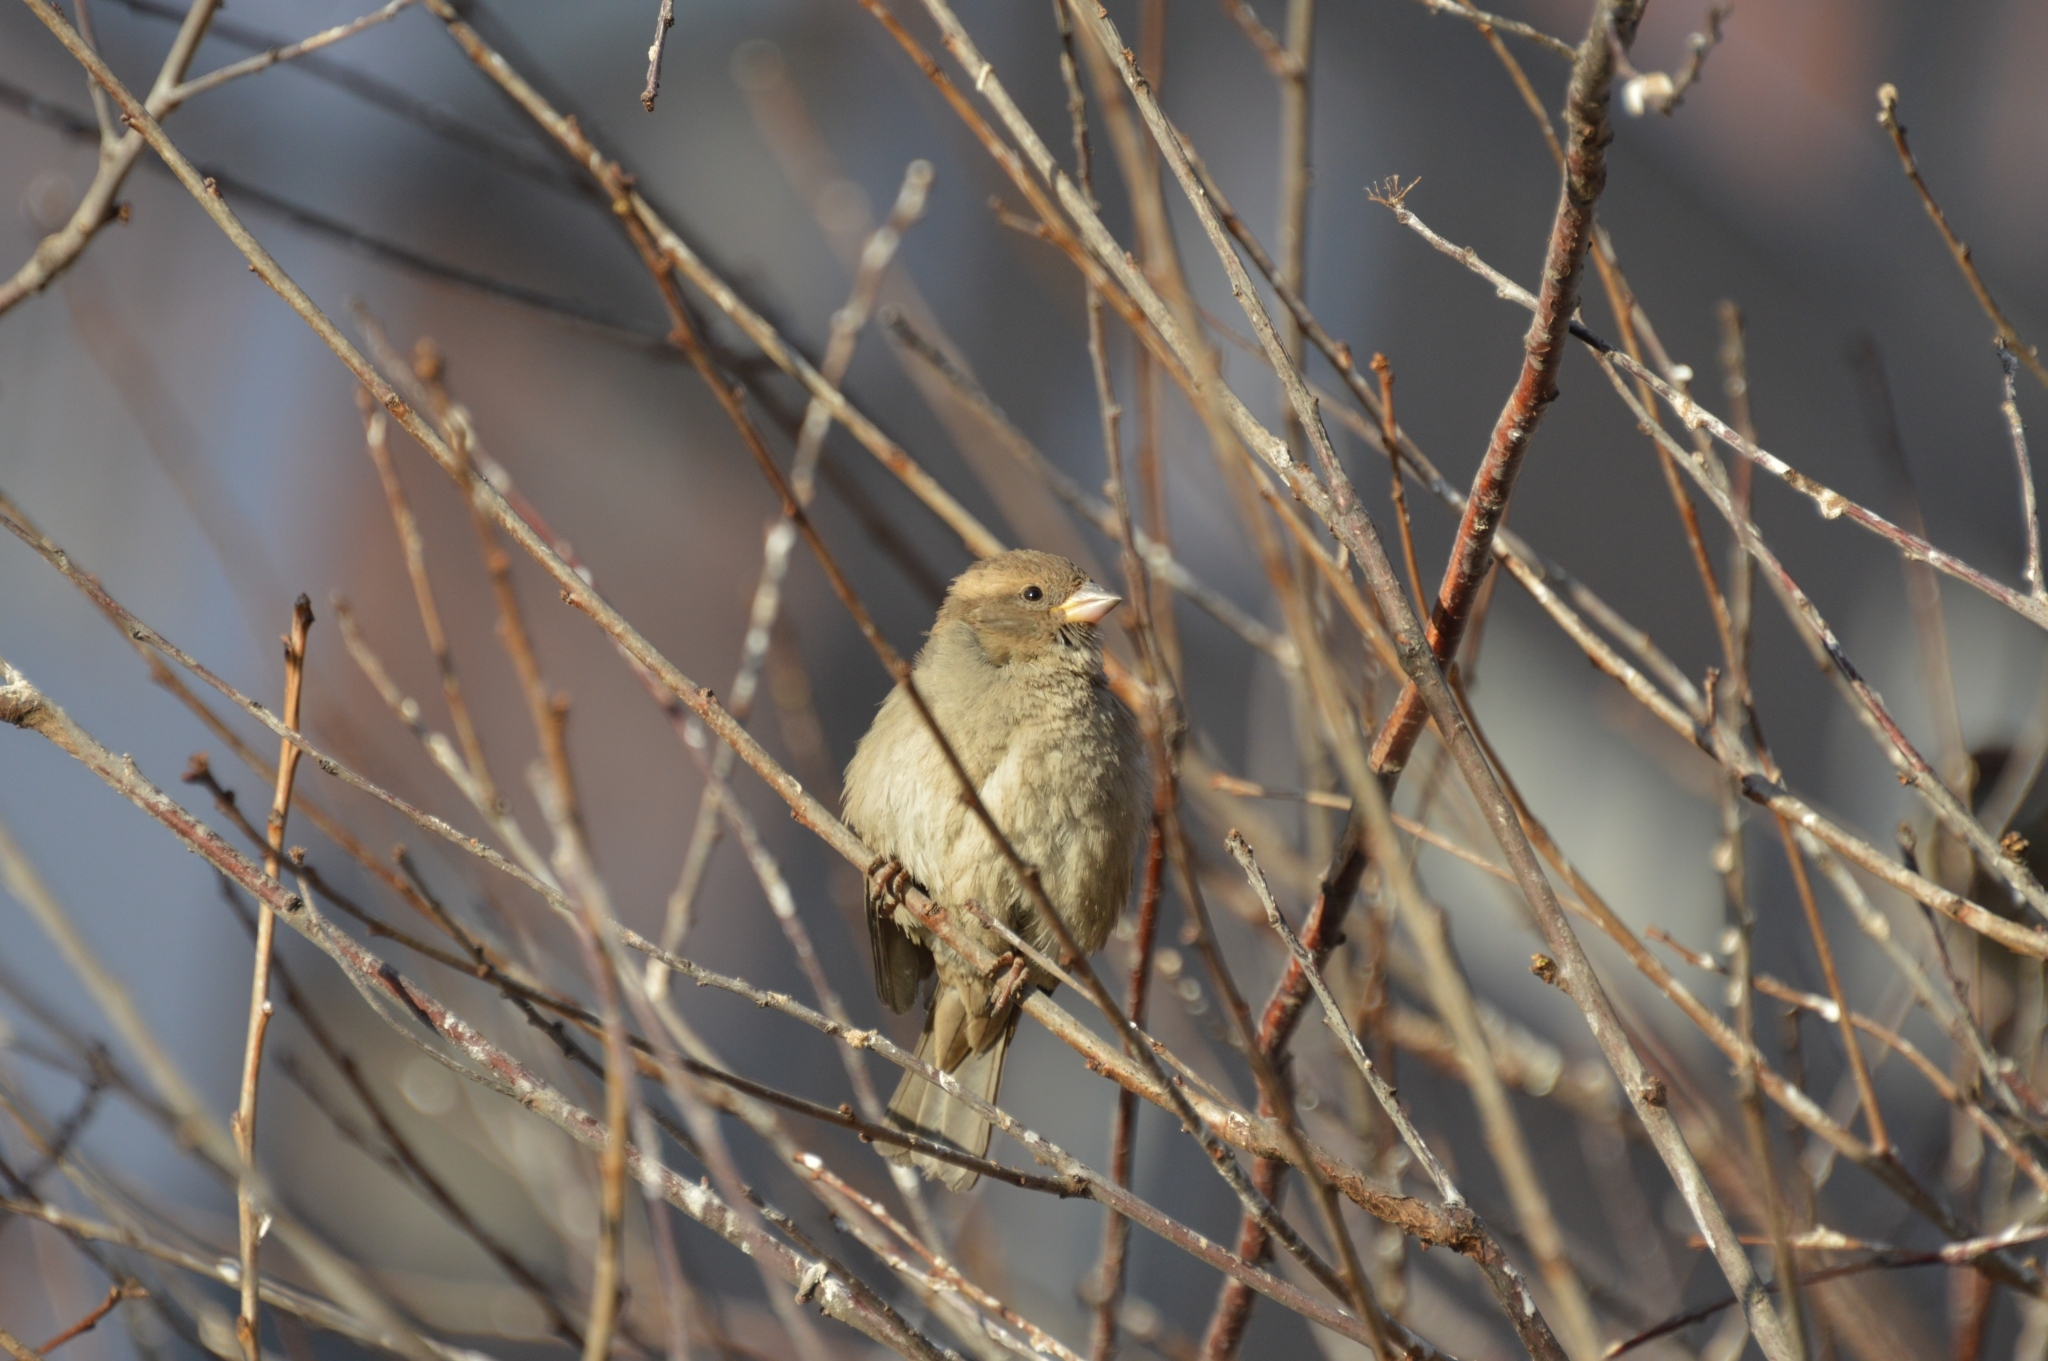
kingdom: Animalia
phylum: Chordata
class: Aves
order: Passeriformes
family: Passeridae
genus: Passer
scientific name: Passer domesticus
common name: House sparrow
